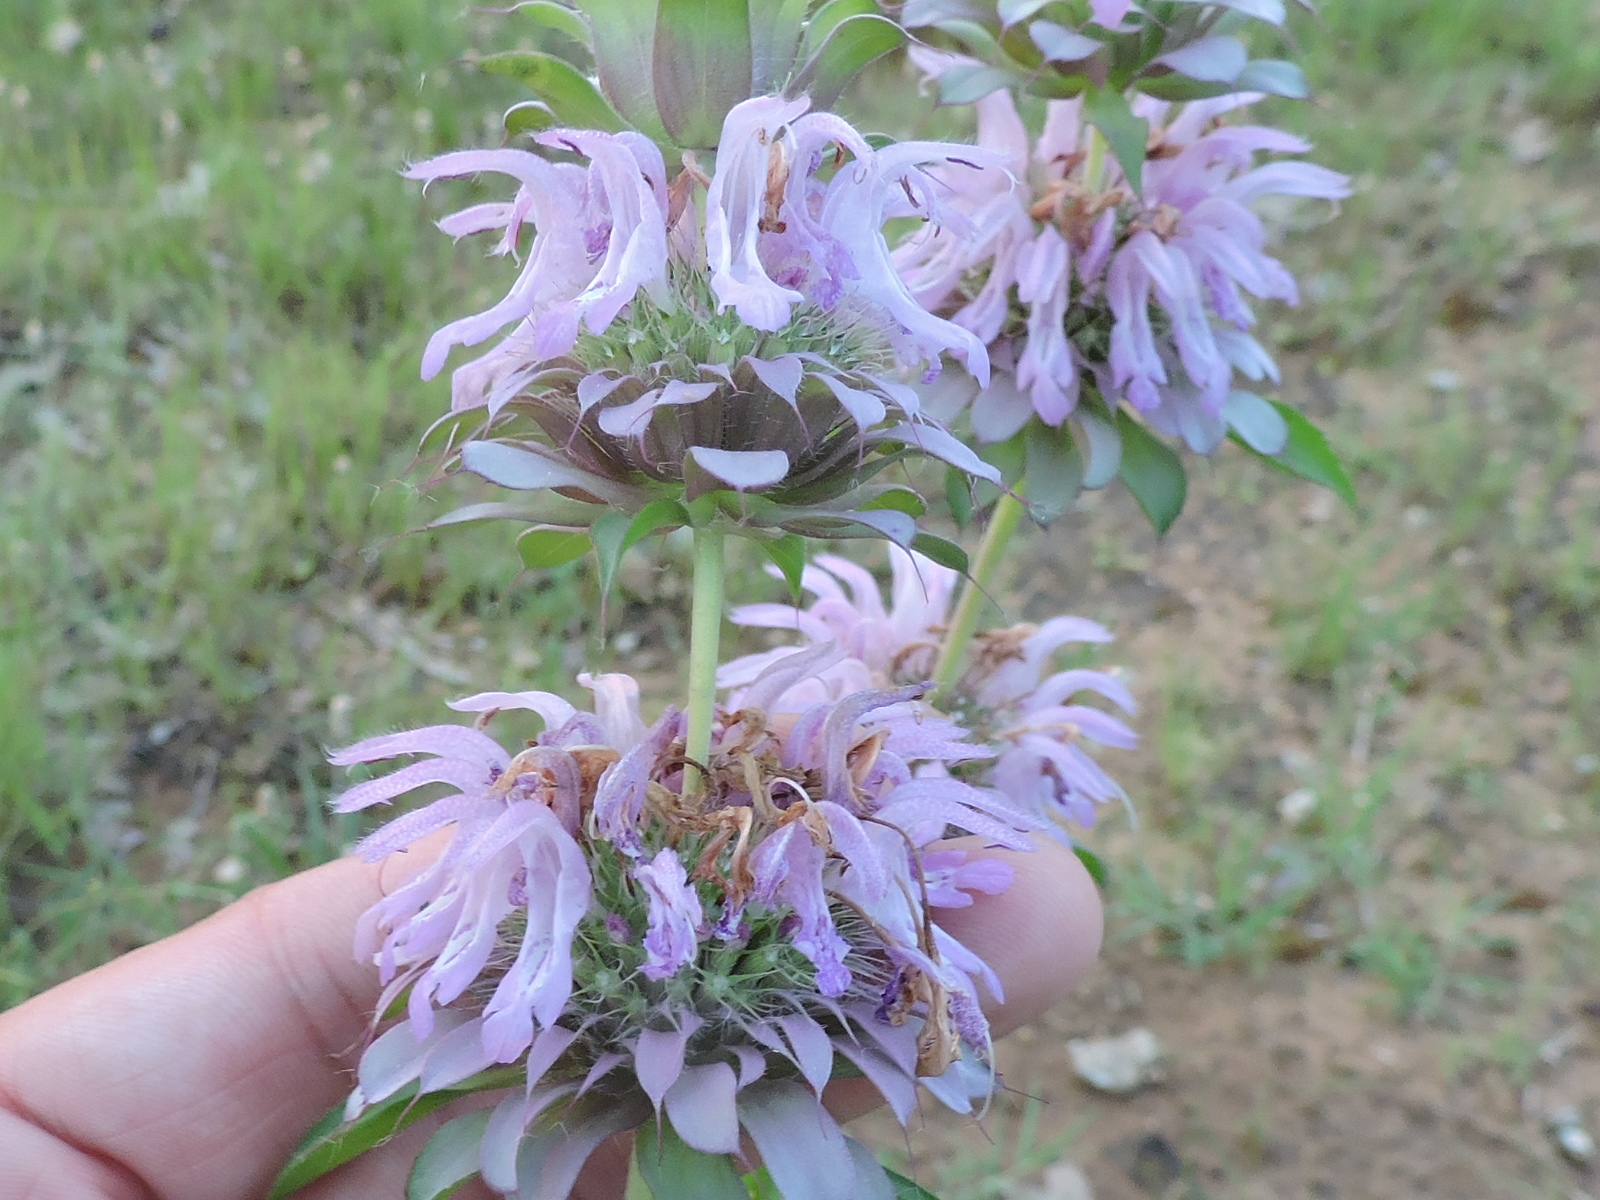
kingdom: Plantae
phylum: Tracheophyta
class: Magnoliopsida
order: Lamiales
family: Lamiaceae
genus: Monarda
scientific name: Monarda citriodora
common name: Lemon beebalm
